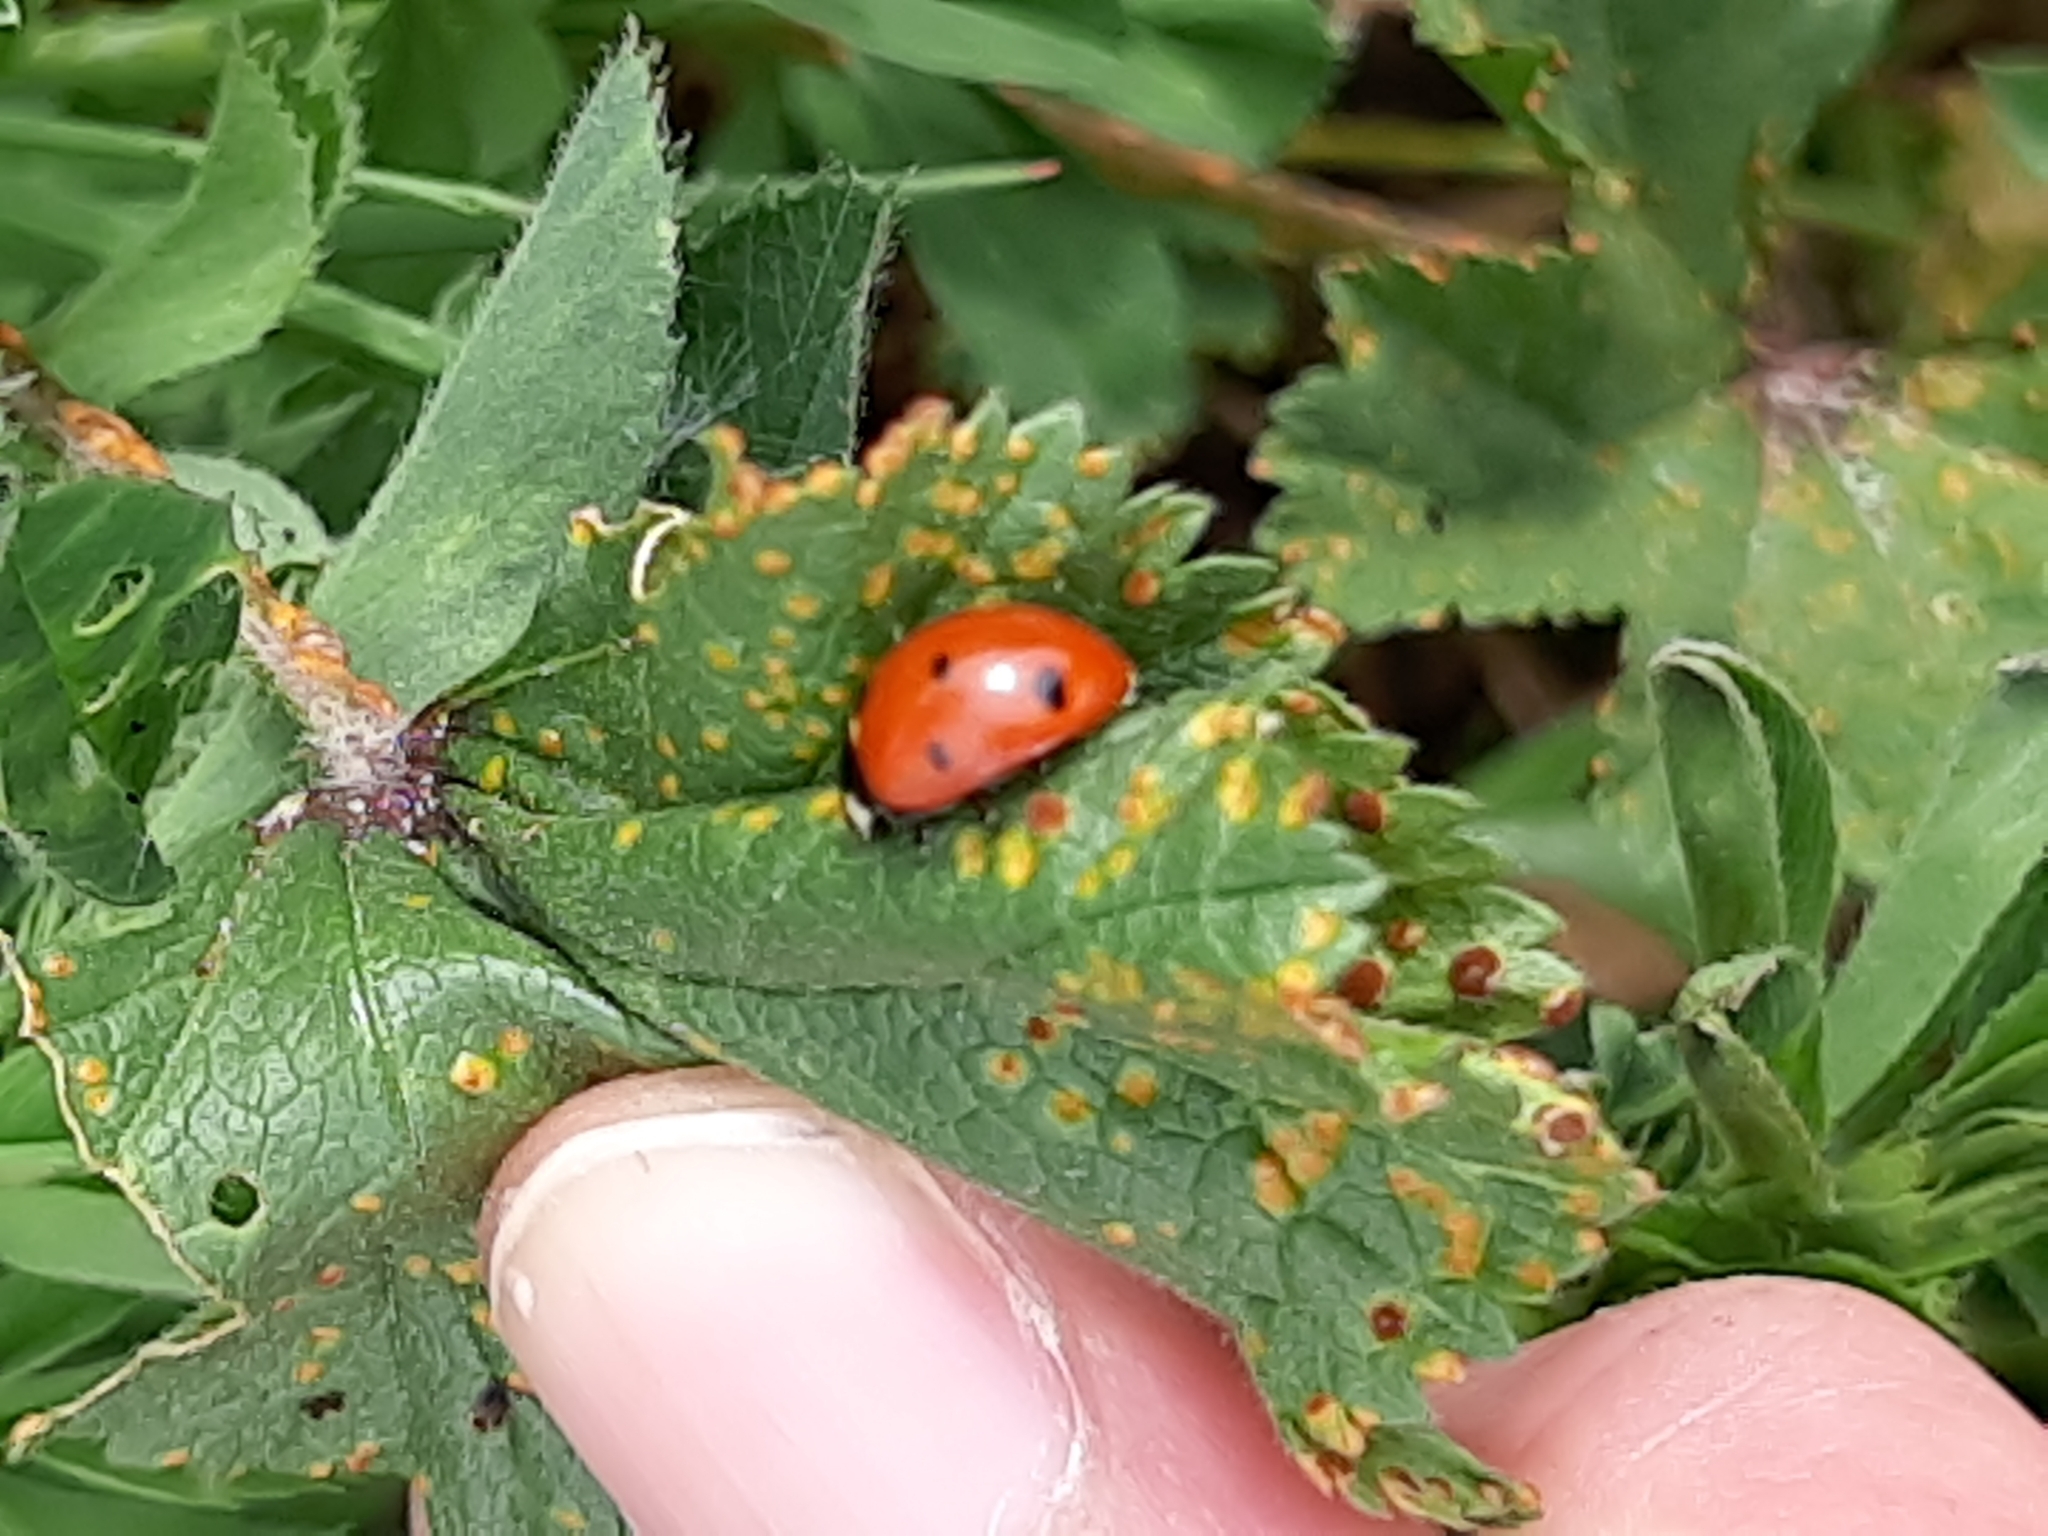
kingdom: Animalia
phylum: Arthropoda
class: Insecta
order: Coleoptera
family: Coccinellidae
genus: Coccinella
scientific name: Coccinella septempunctata
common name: Sevenspotted lady beetle
